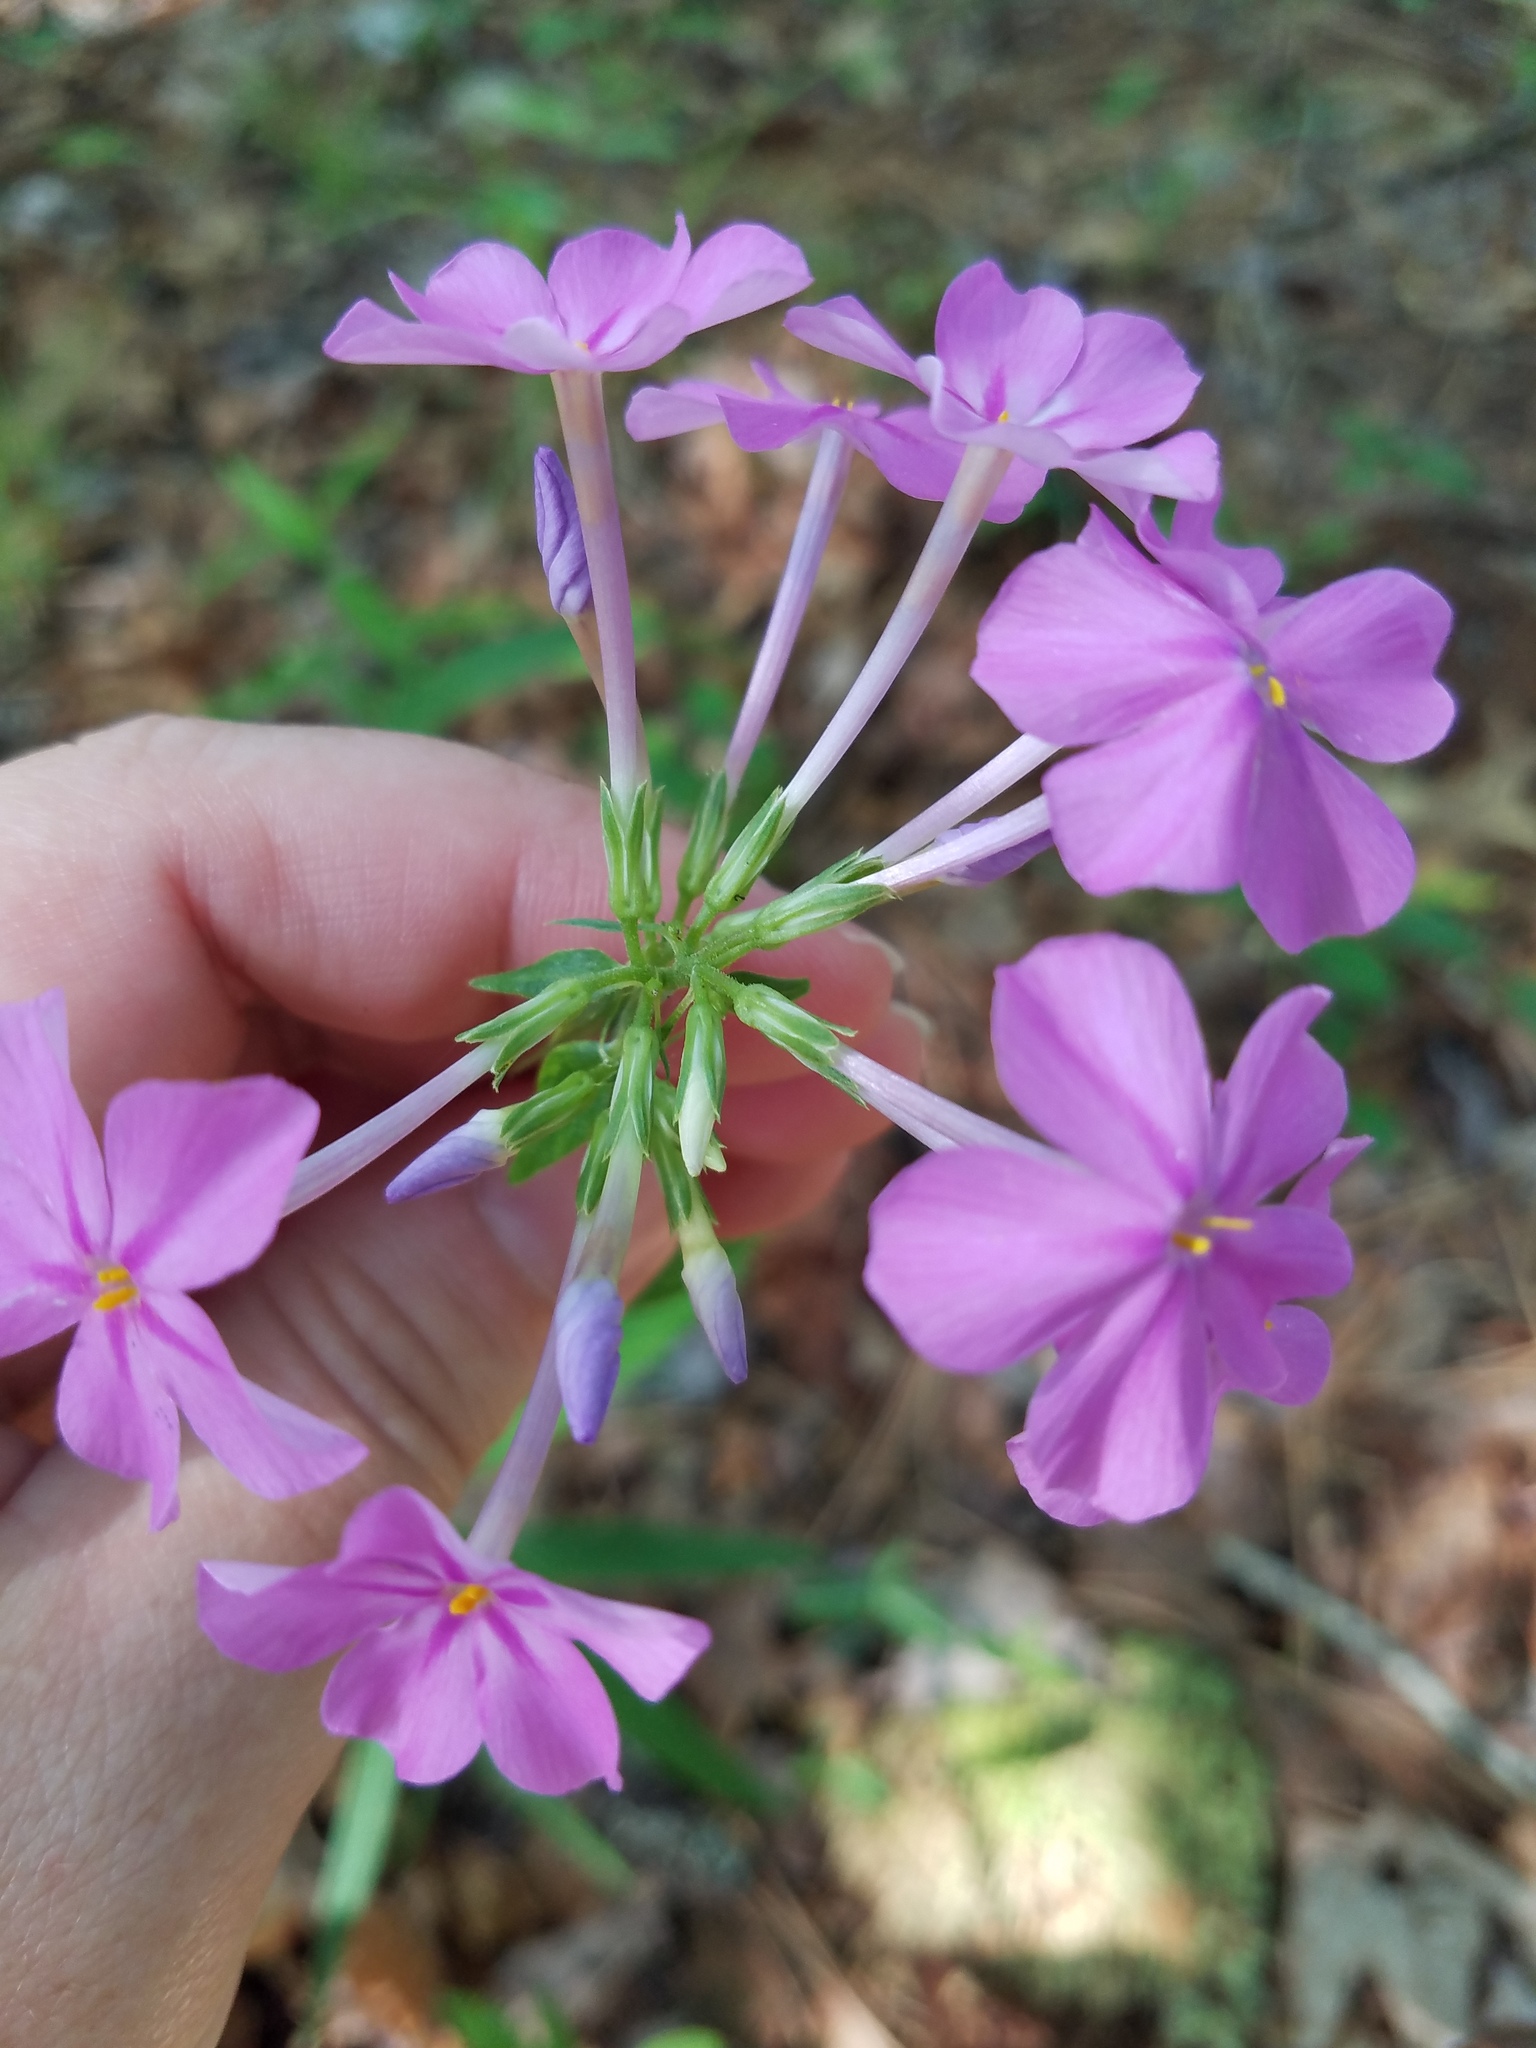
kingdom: Plantae
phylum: Tracheophyta
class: Magnoliopsida
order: Ericales
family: Polemoniaceae
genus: Phlox
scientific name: Phlox carolina
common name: Thick-leaf phlox
